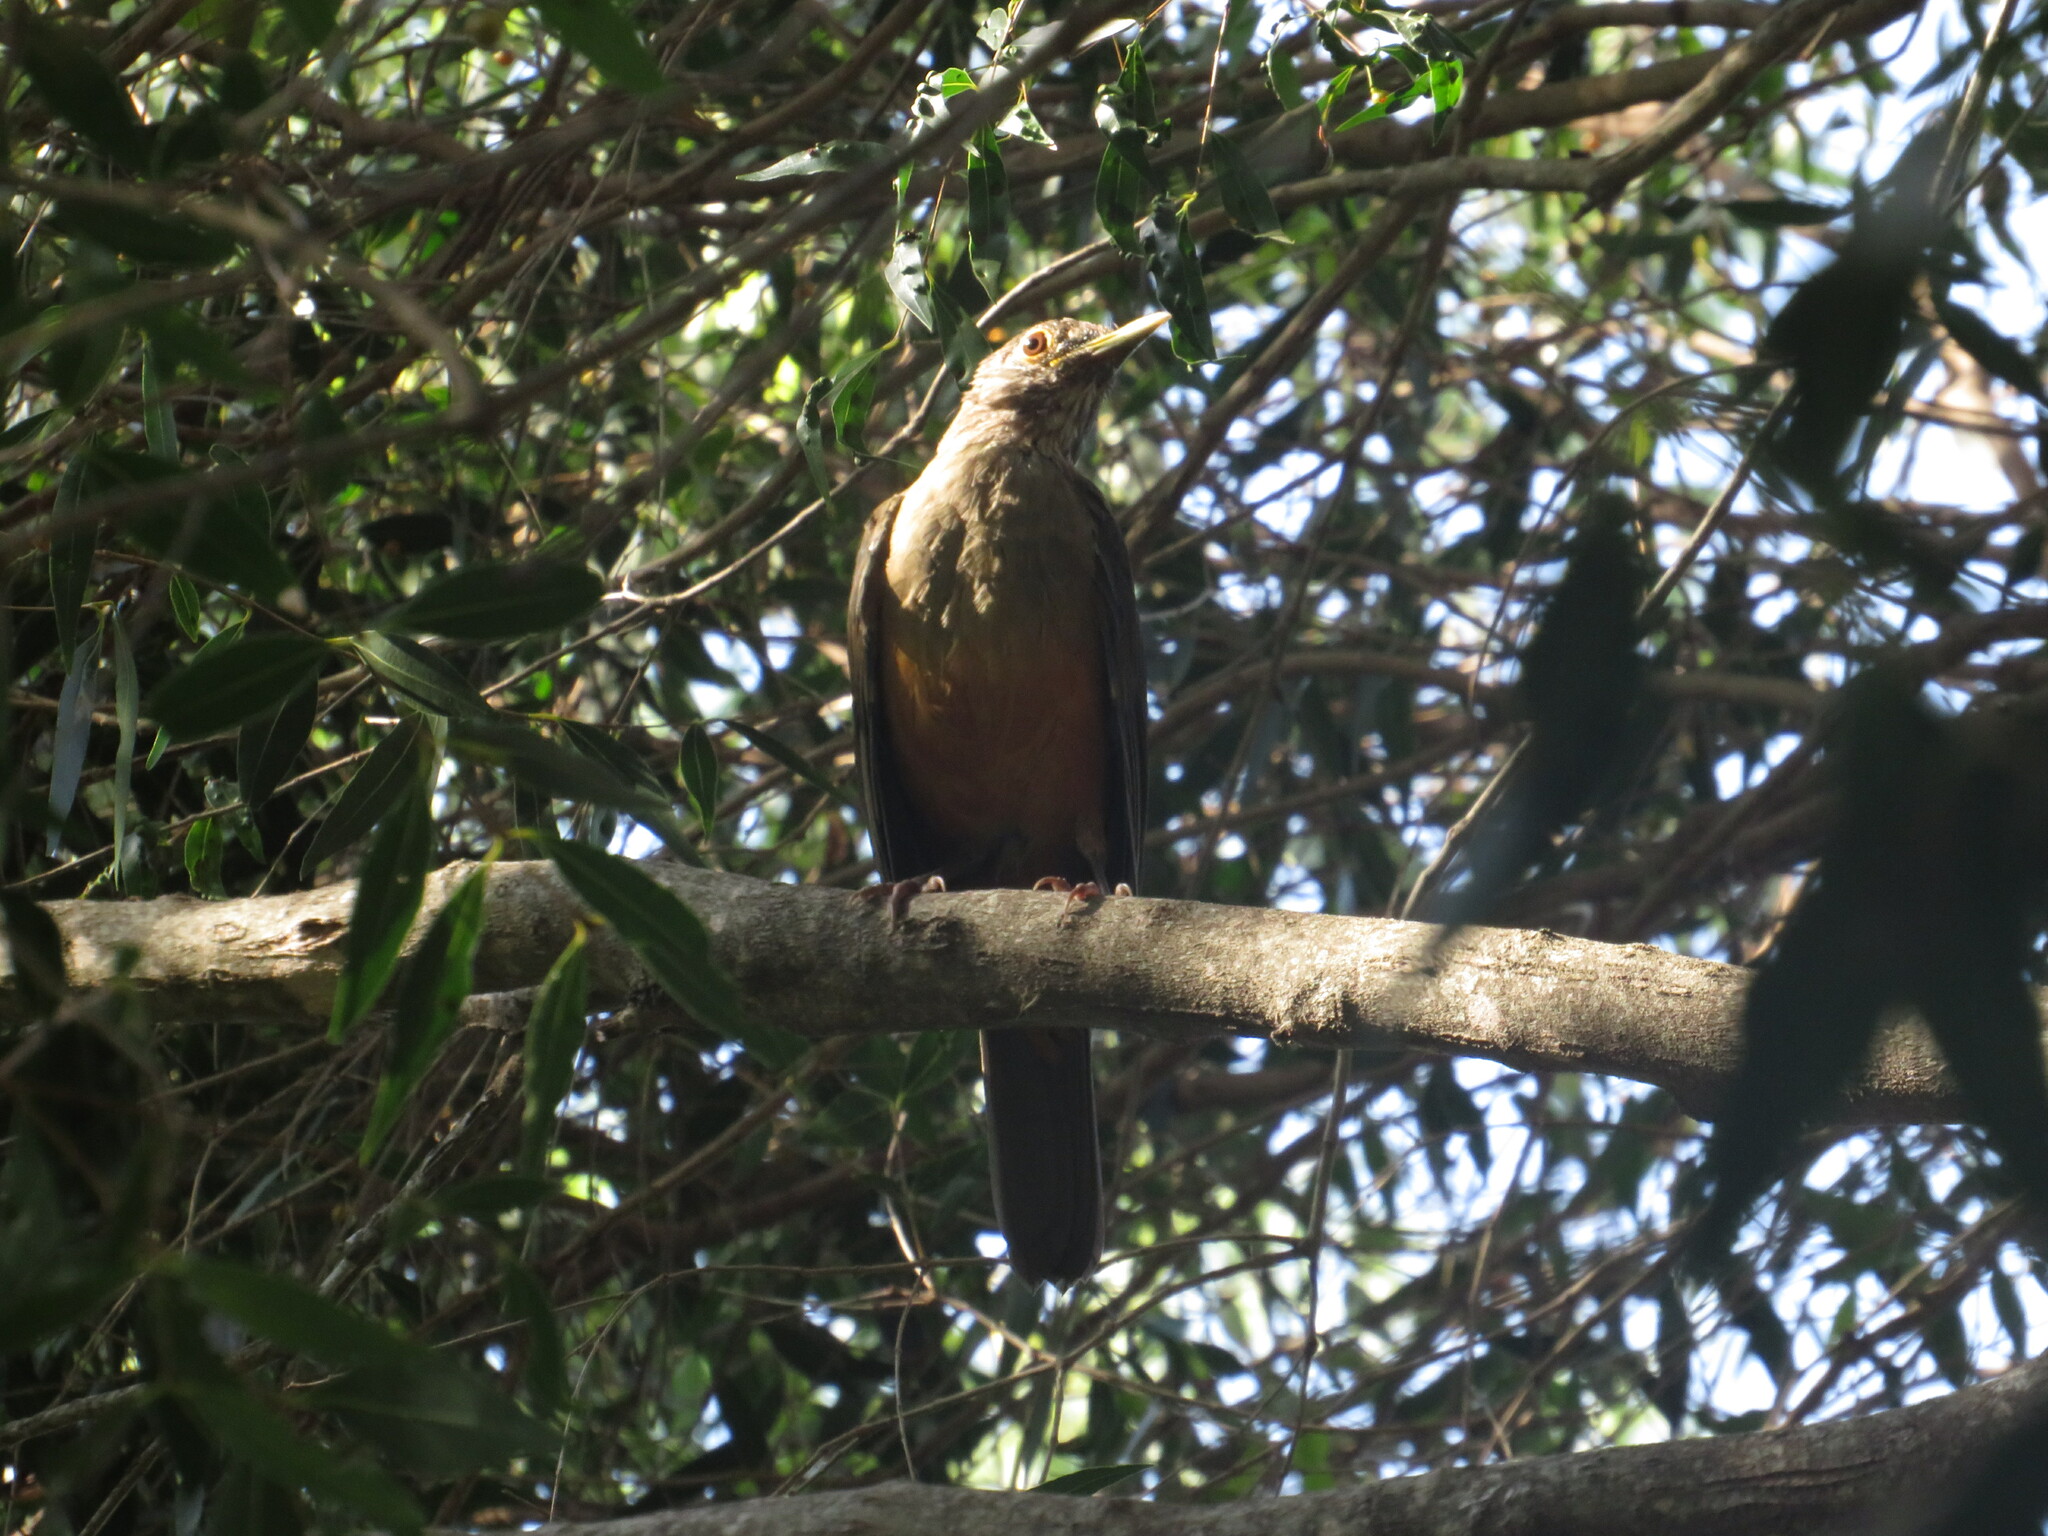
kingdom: Animalia
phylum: Chordata
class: Aves
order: Passeriformes
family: Turdidae
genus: Turdus
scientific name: Turdus rufiventris
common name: Rufous-bellied thrush
